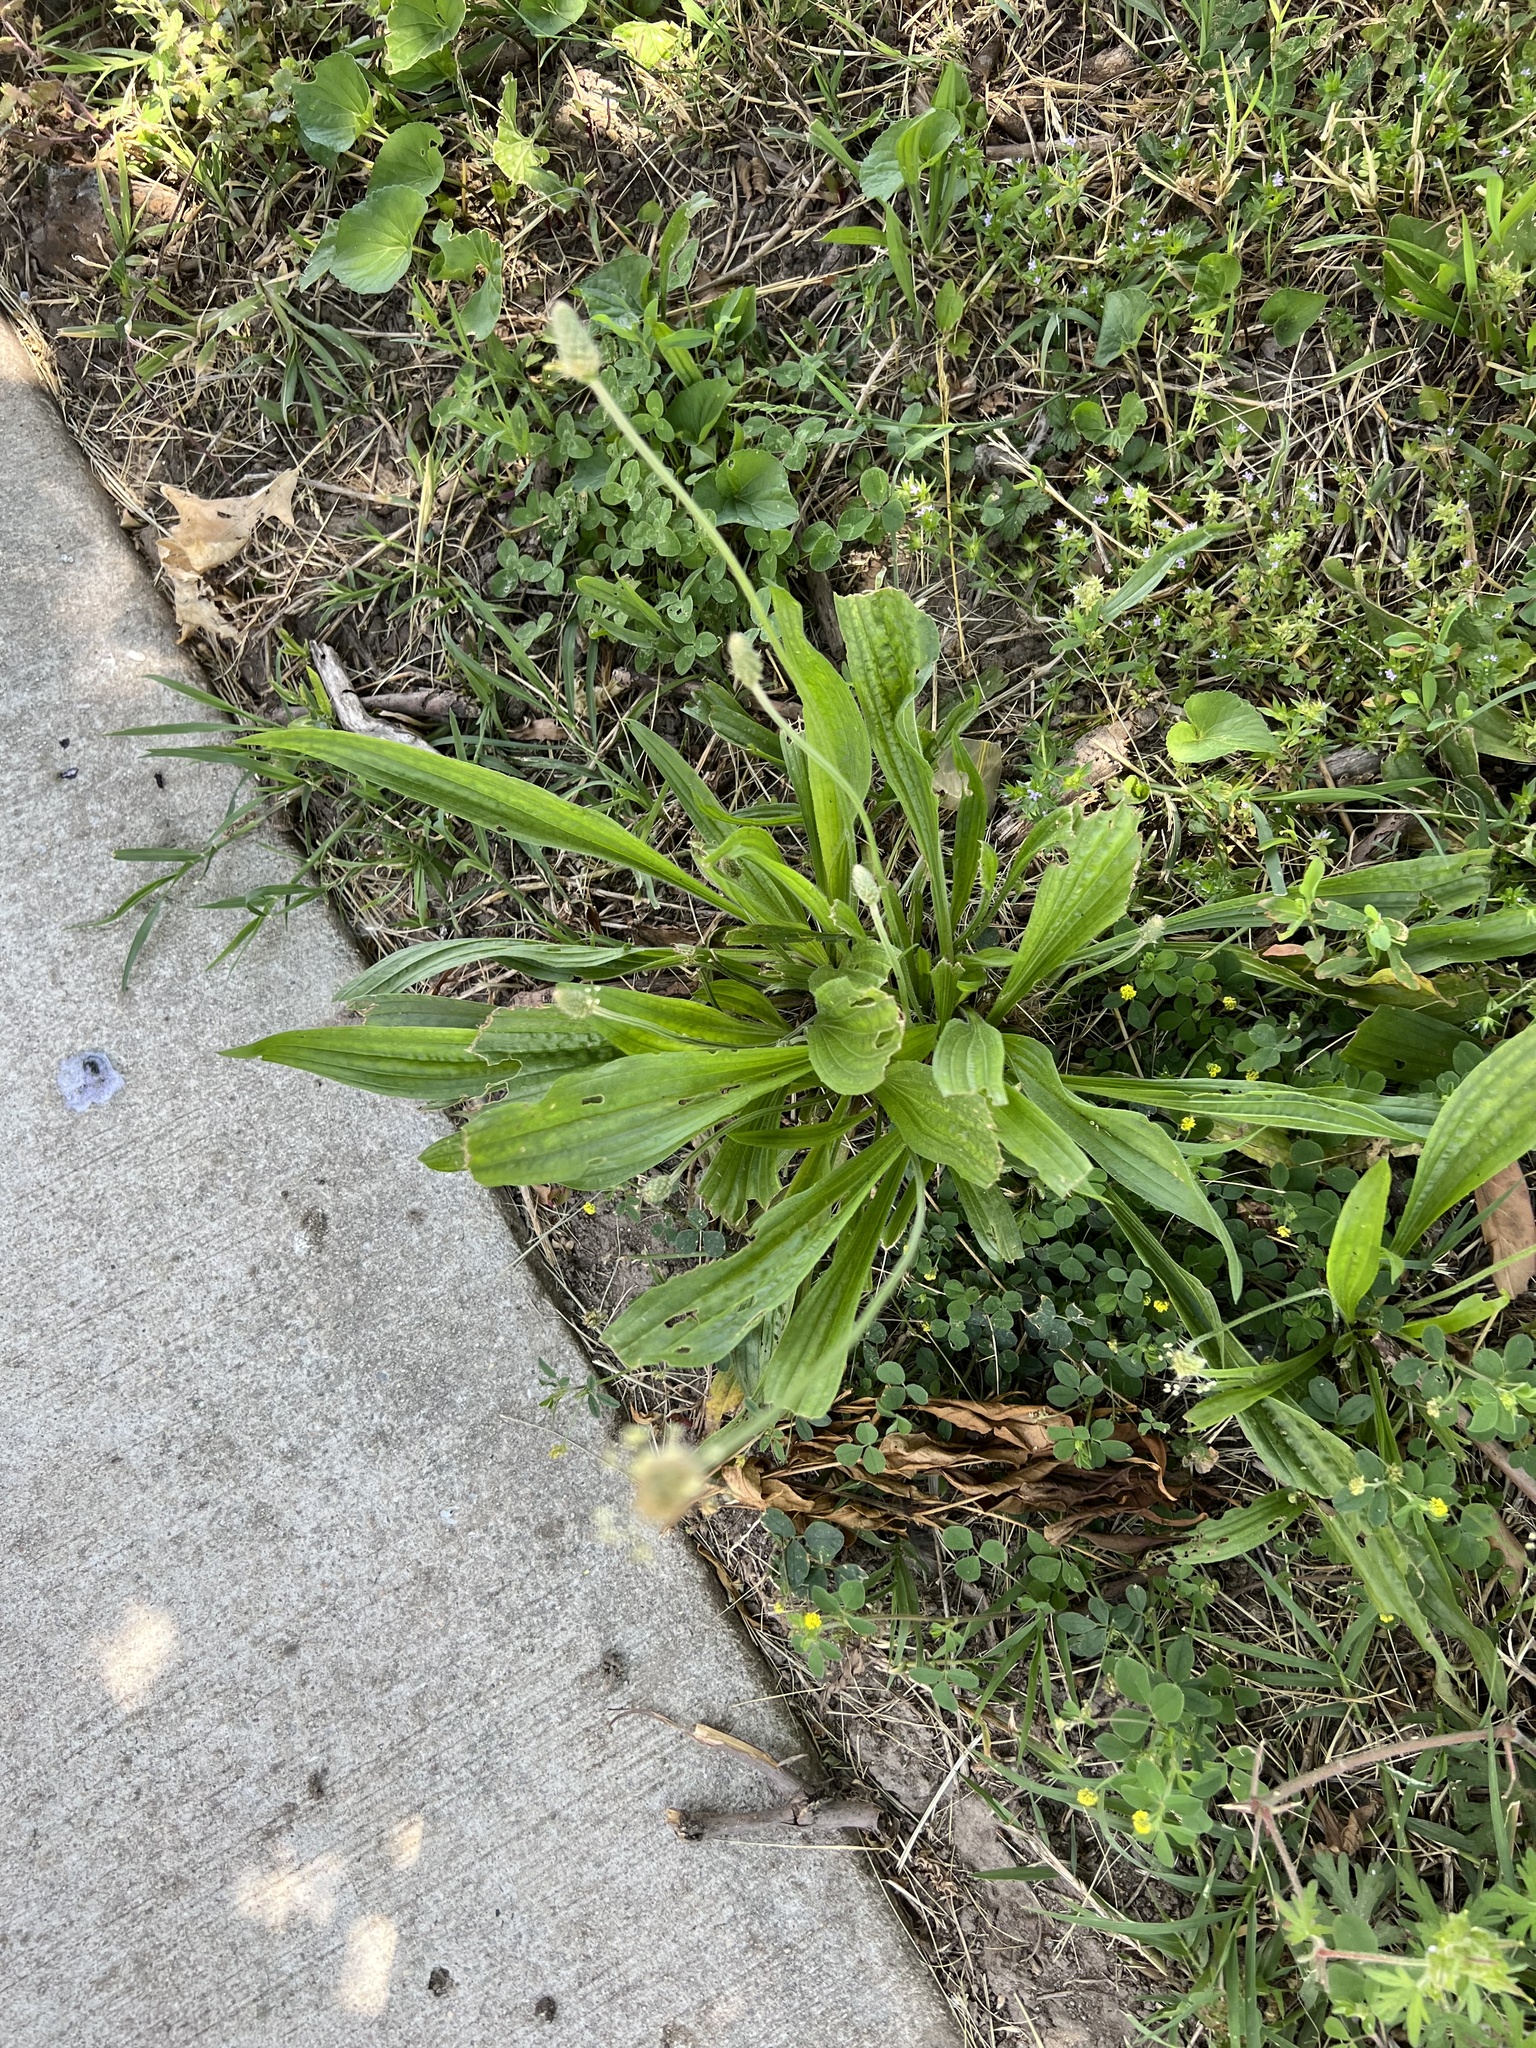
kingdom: Plantae
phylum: Tracheophyta
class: Magnoliopsida
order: Lamiales
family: Plantaginaceae
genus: Plantago
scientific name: Plantago lanceolata
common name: Ribwort plantain
